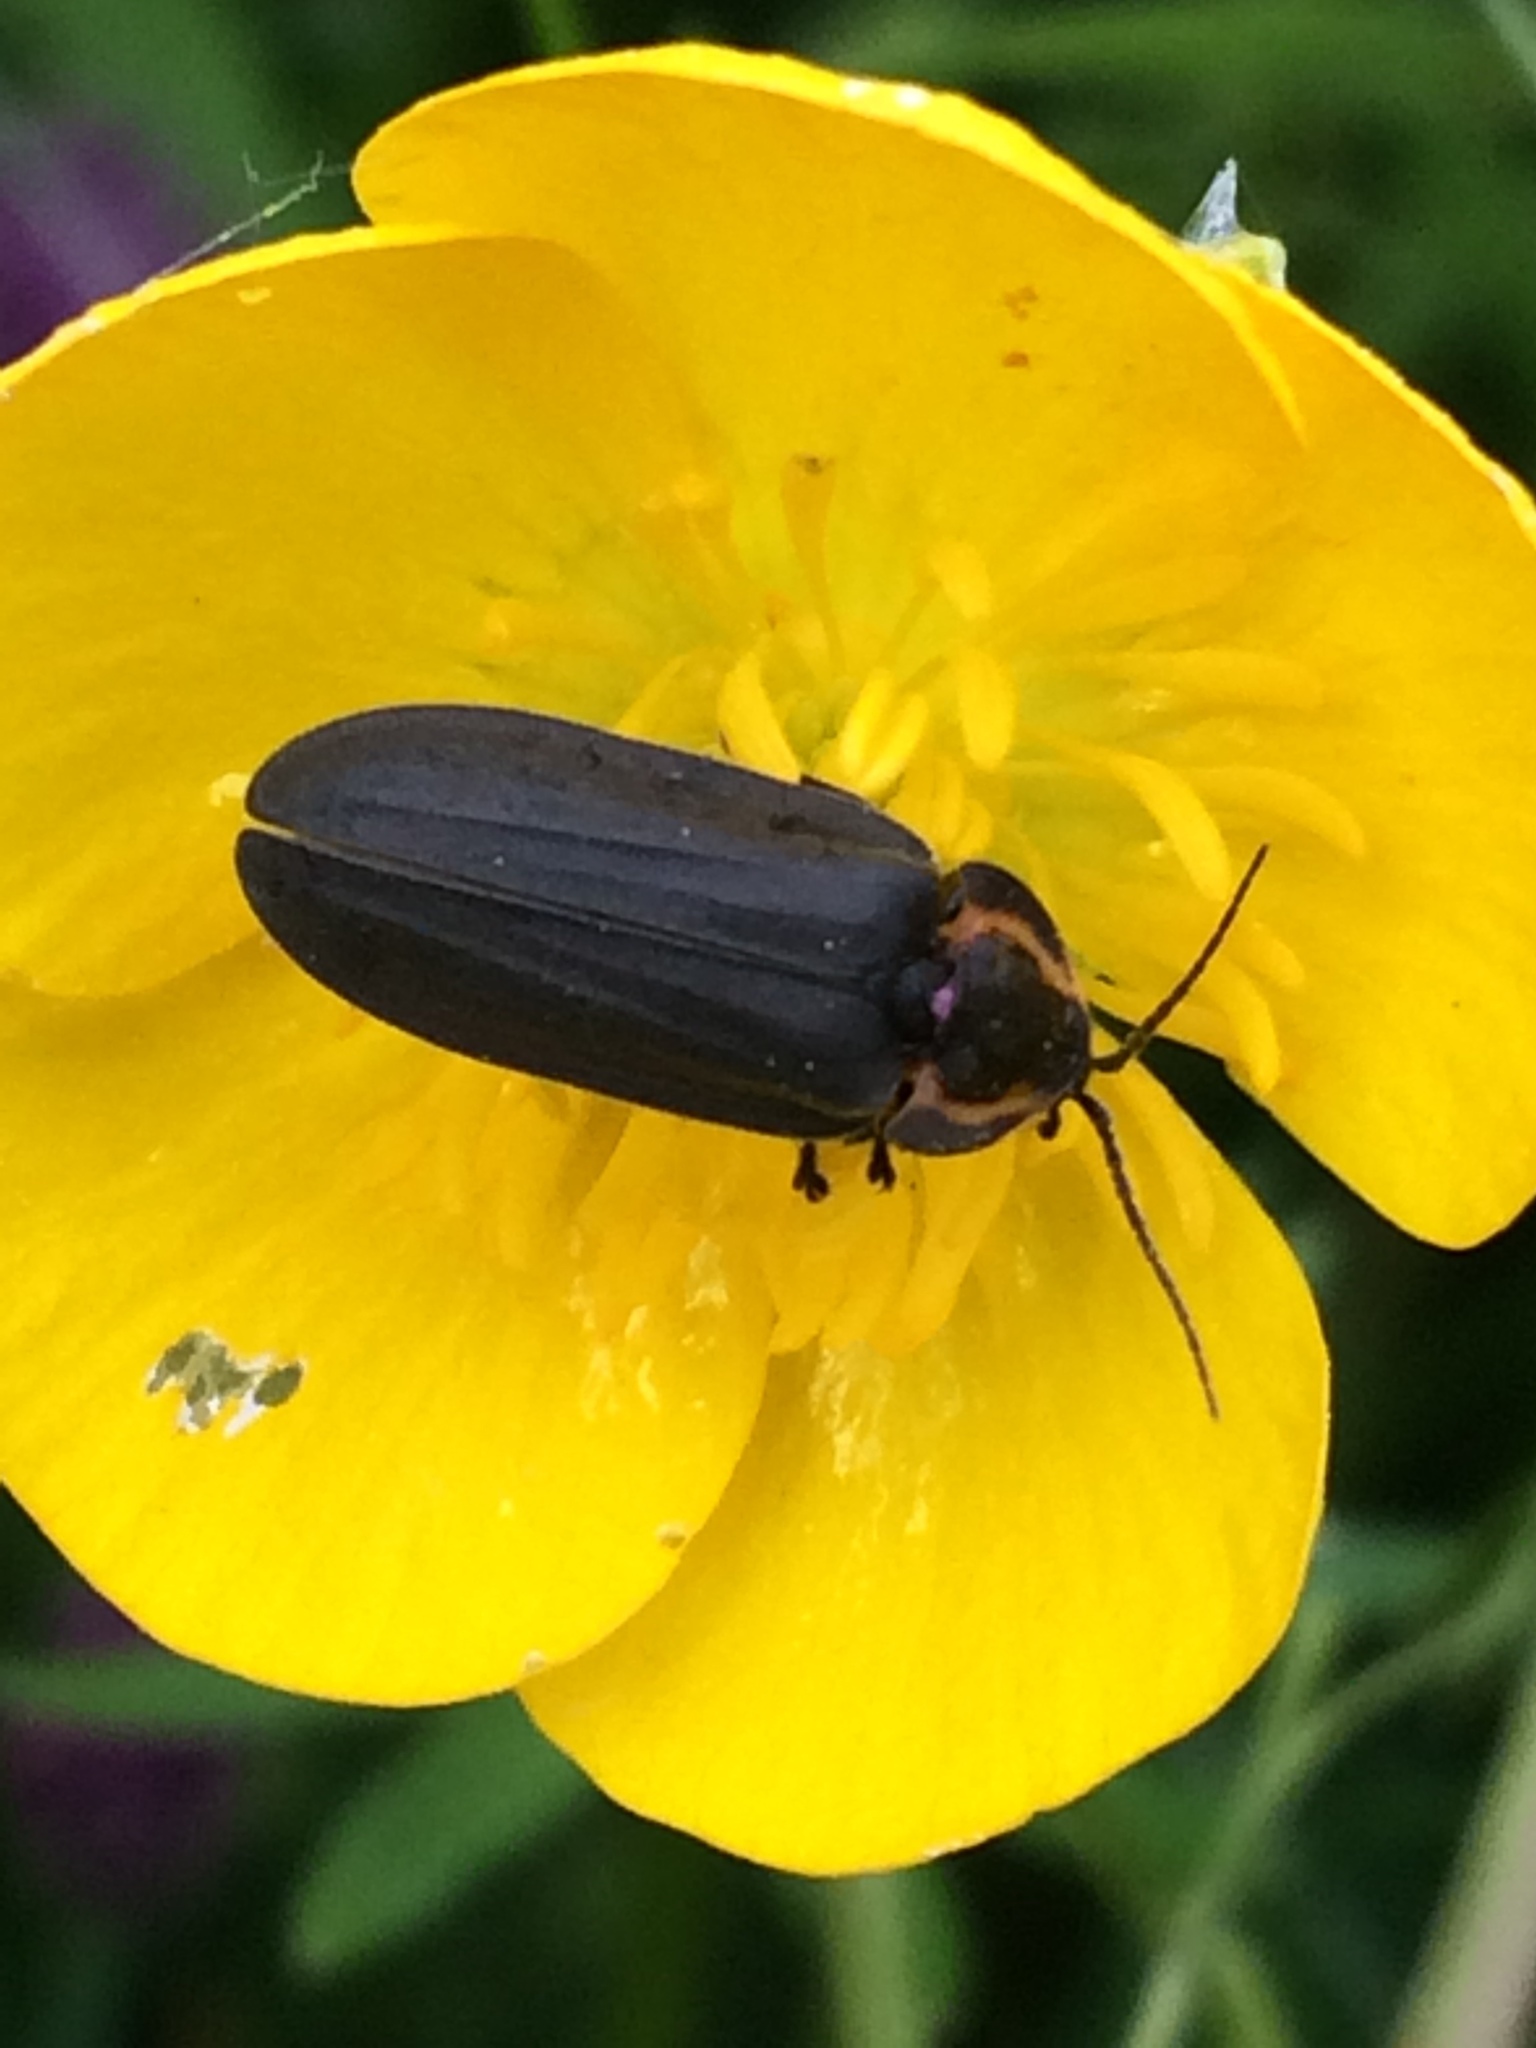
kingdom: Animalia
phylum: Arthropoda
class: Insecta
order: Coleoptera
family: Lampyridae
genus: Photinus
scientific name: Photinus corrusca
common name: Winter firefly
